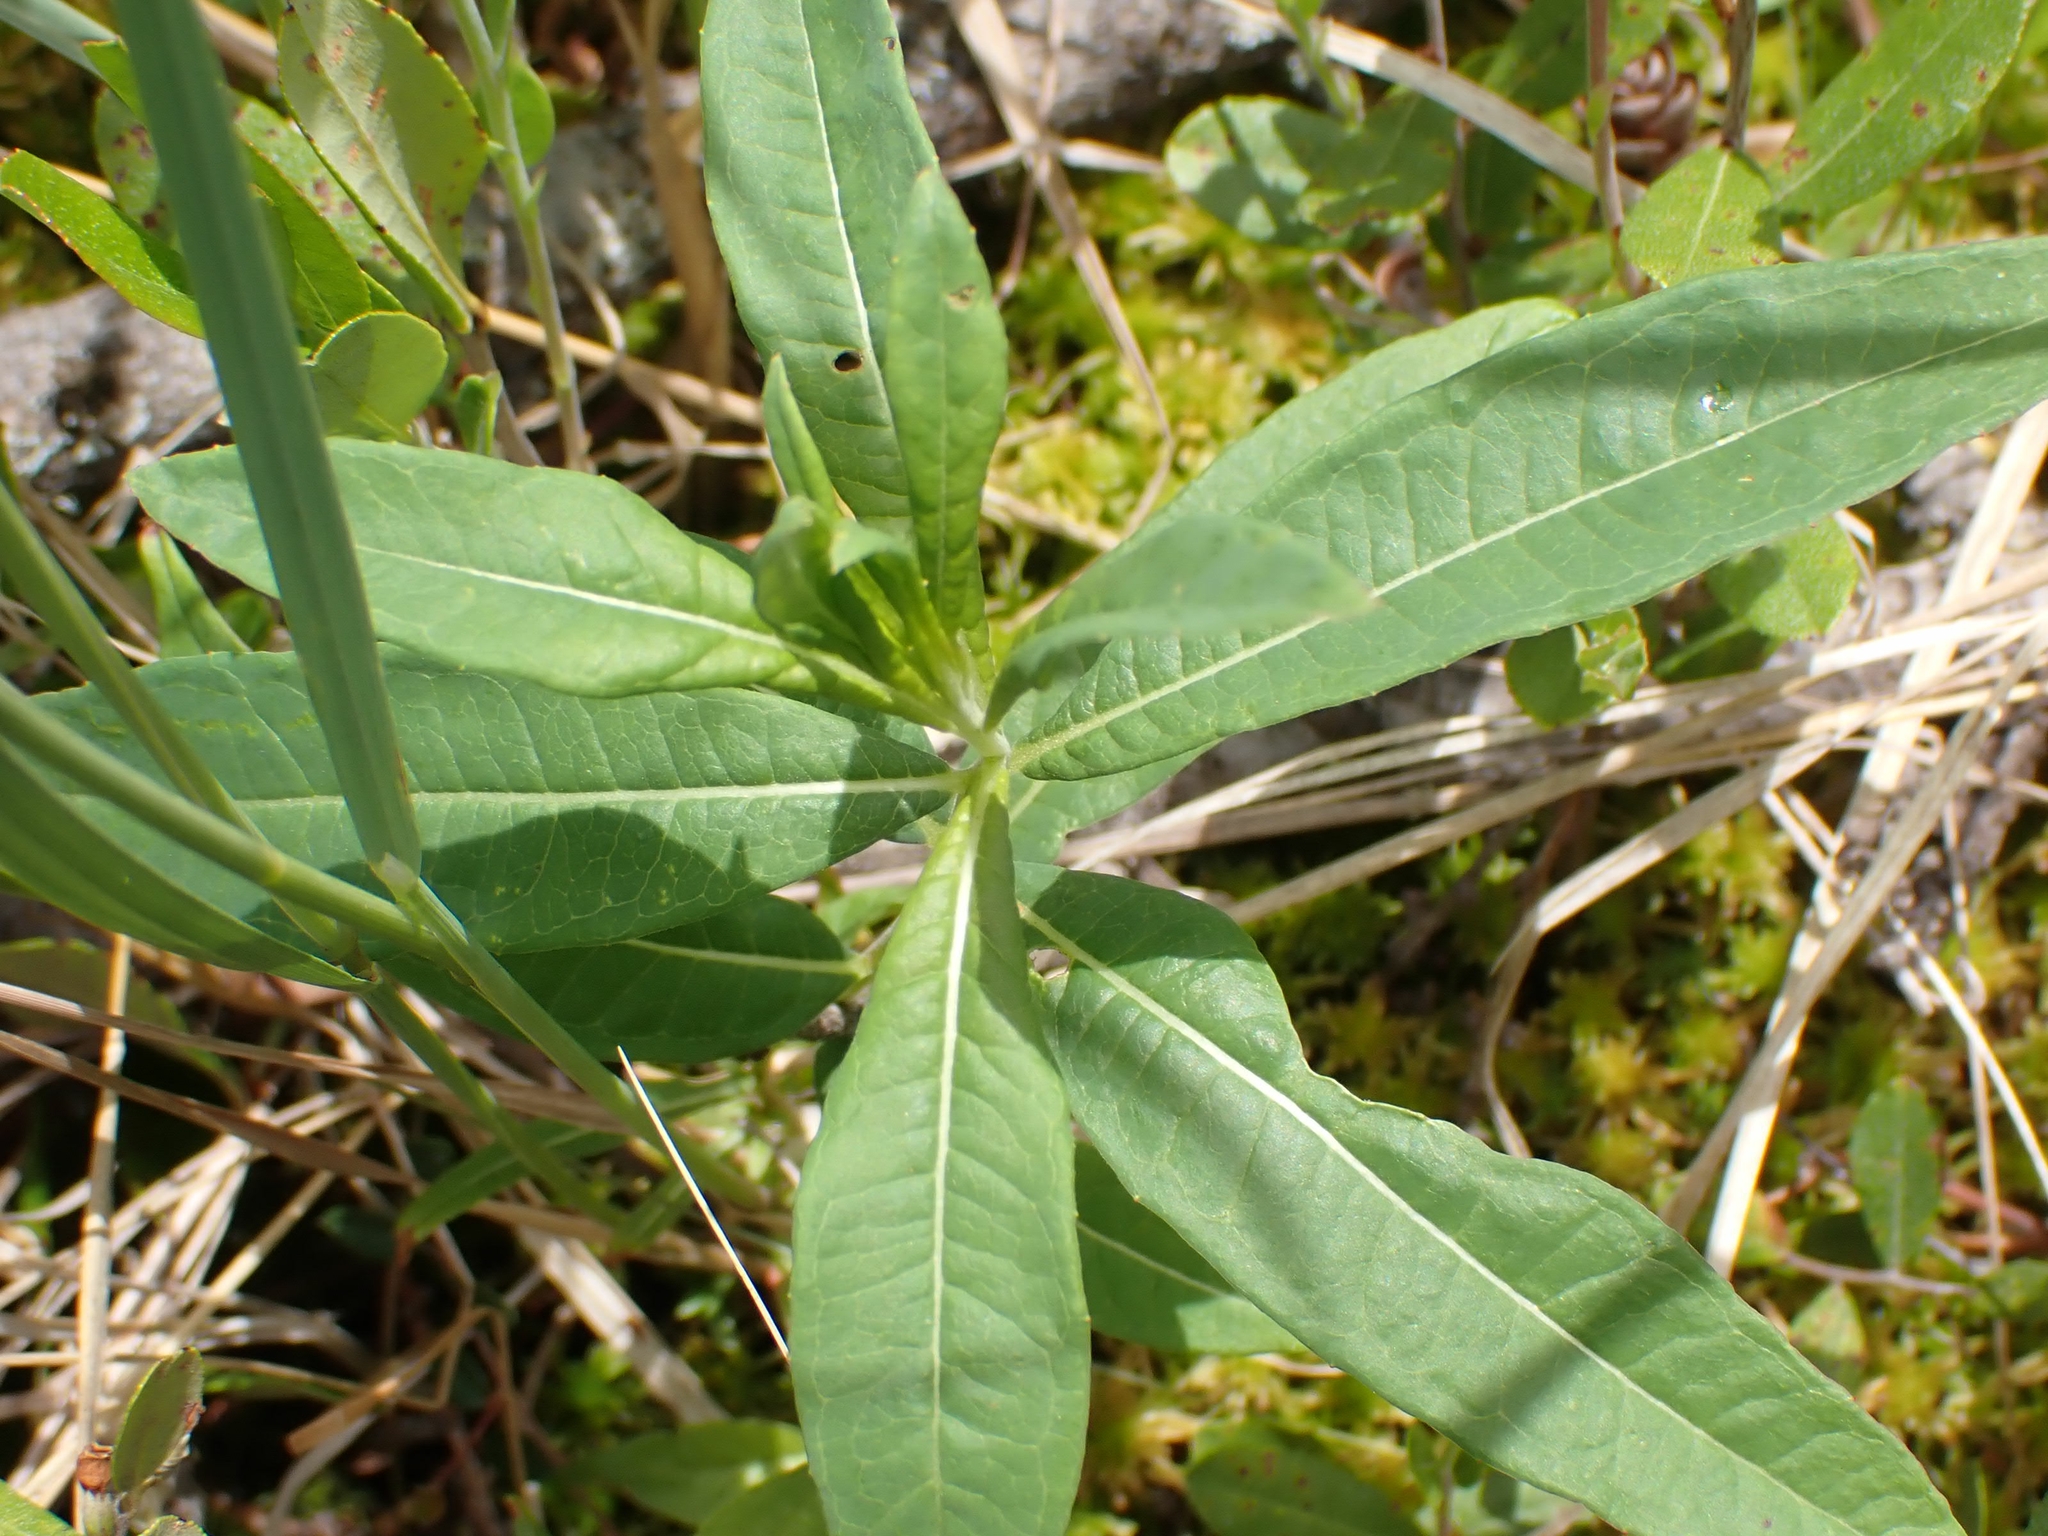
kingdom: Plantae
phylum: Tracheophyta
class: Magnoliopsida
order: Myrtales
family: Onagraceae
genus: Chamaenerion
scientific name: Chamaenerion angustifolium
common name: Fireweed
